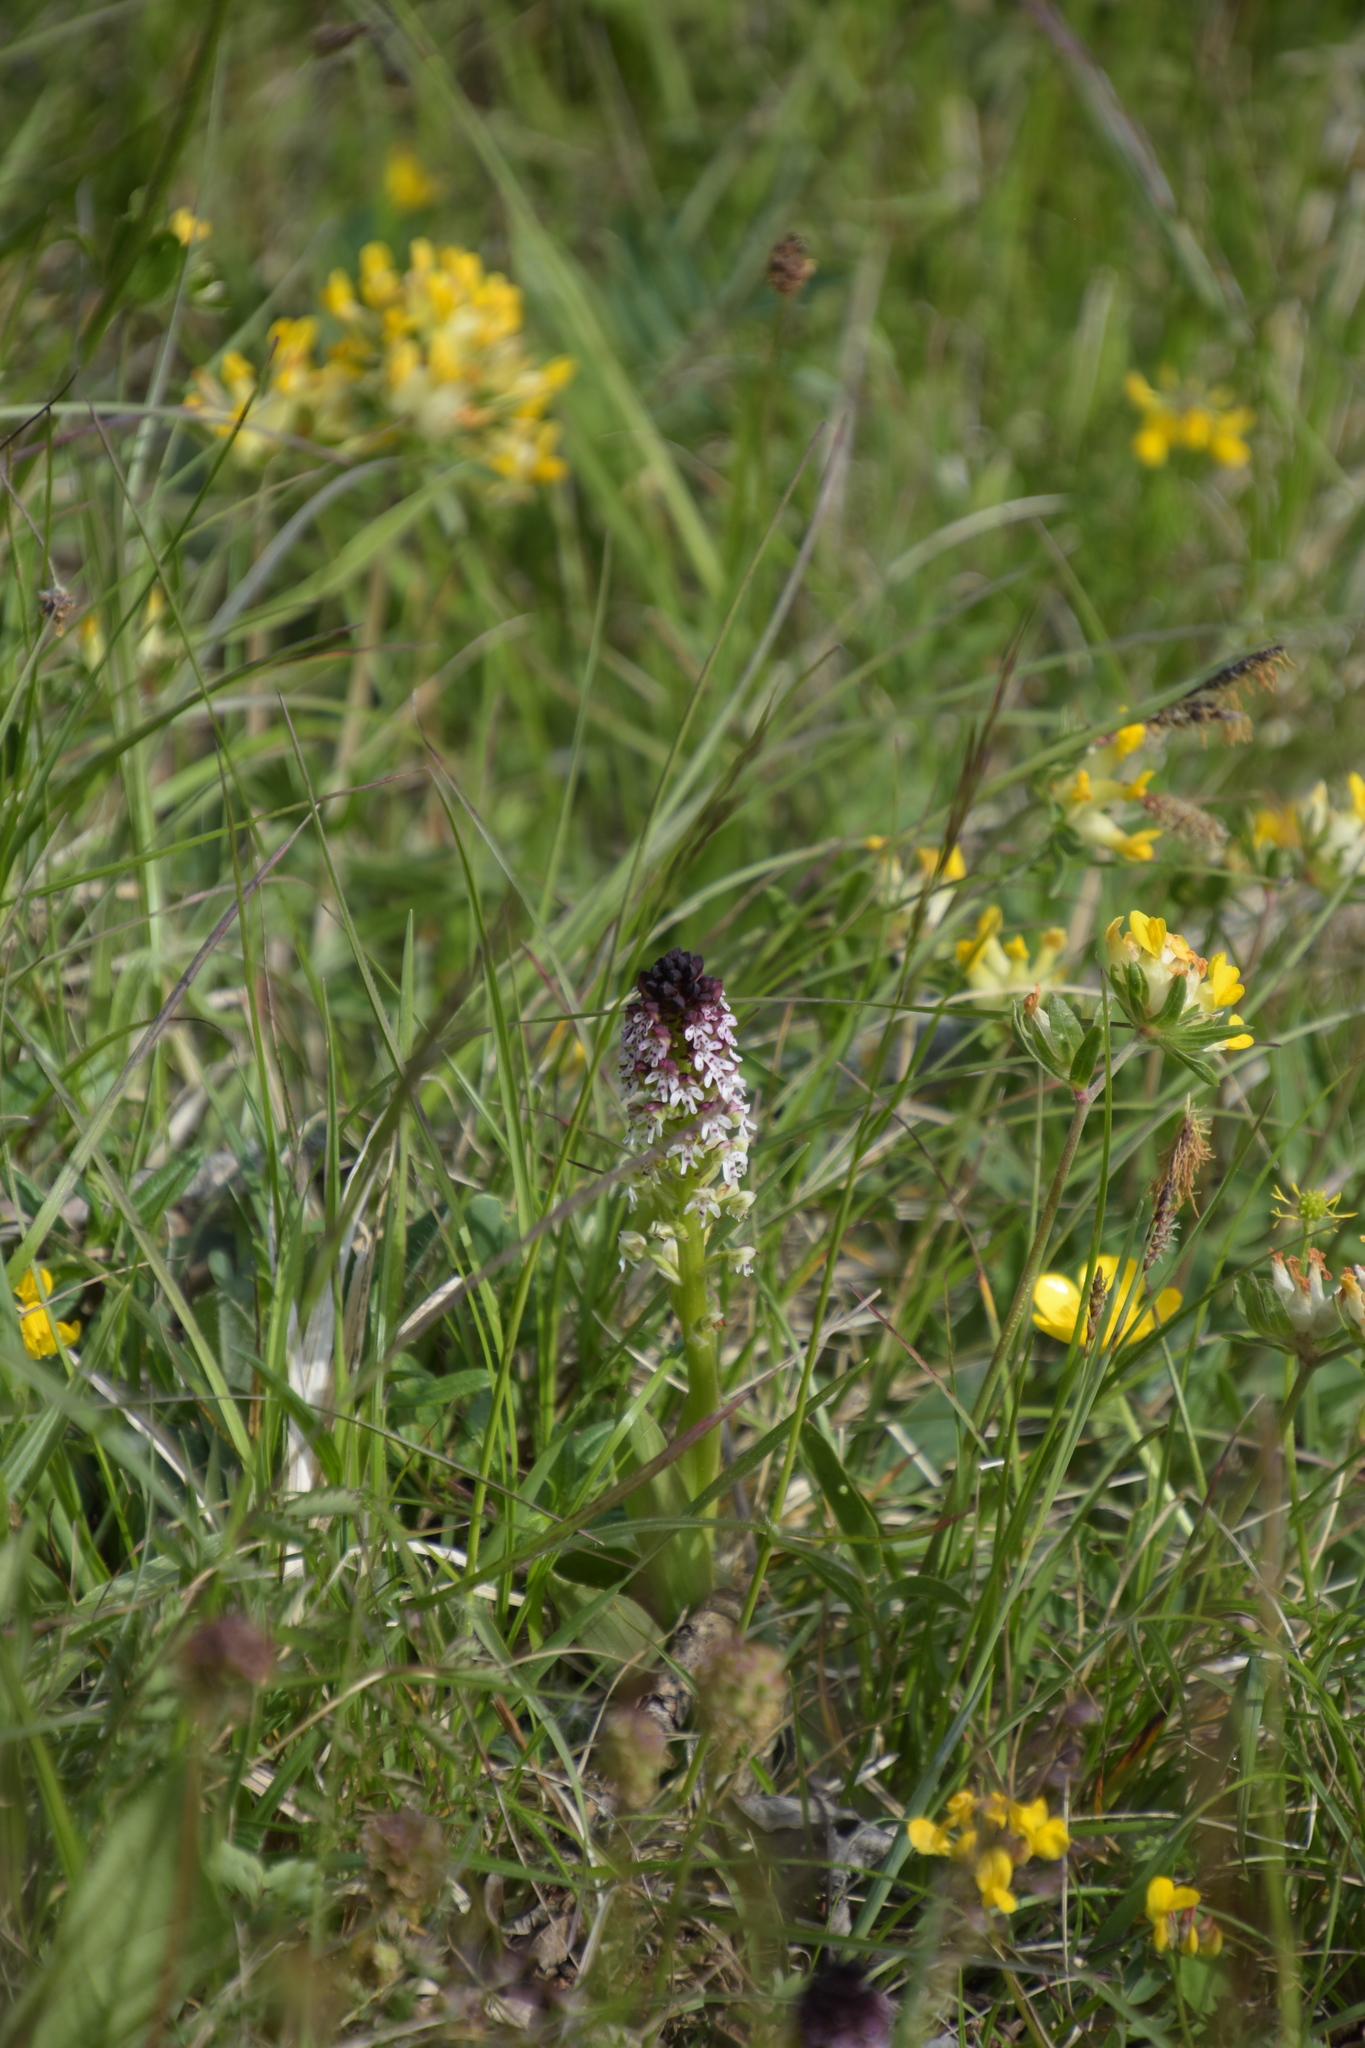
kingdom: Plantae
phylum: Tracheophyta
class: Liliopsida
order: Asparagales
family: Orchidaceae
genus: Neotinea
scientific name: Neotinea ustulata
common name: Burnt orchid
